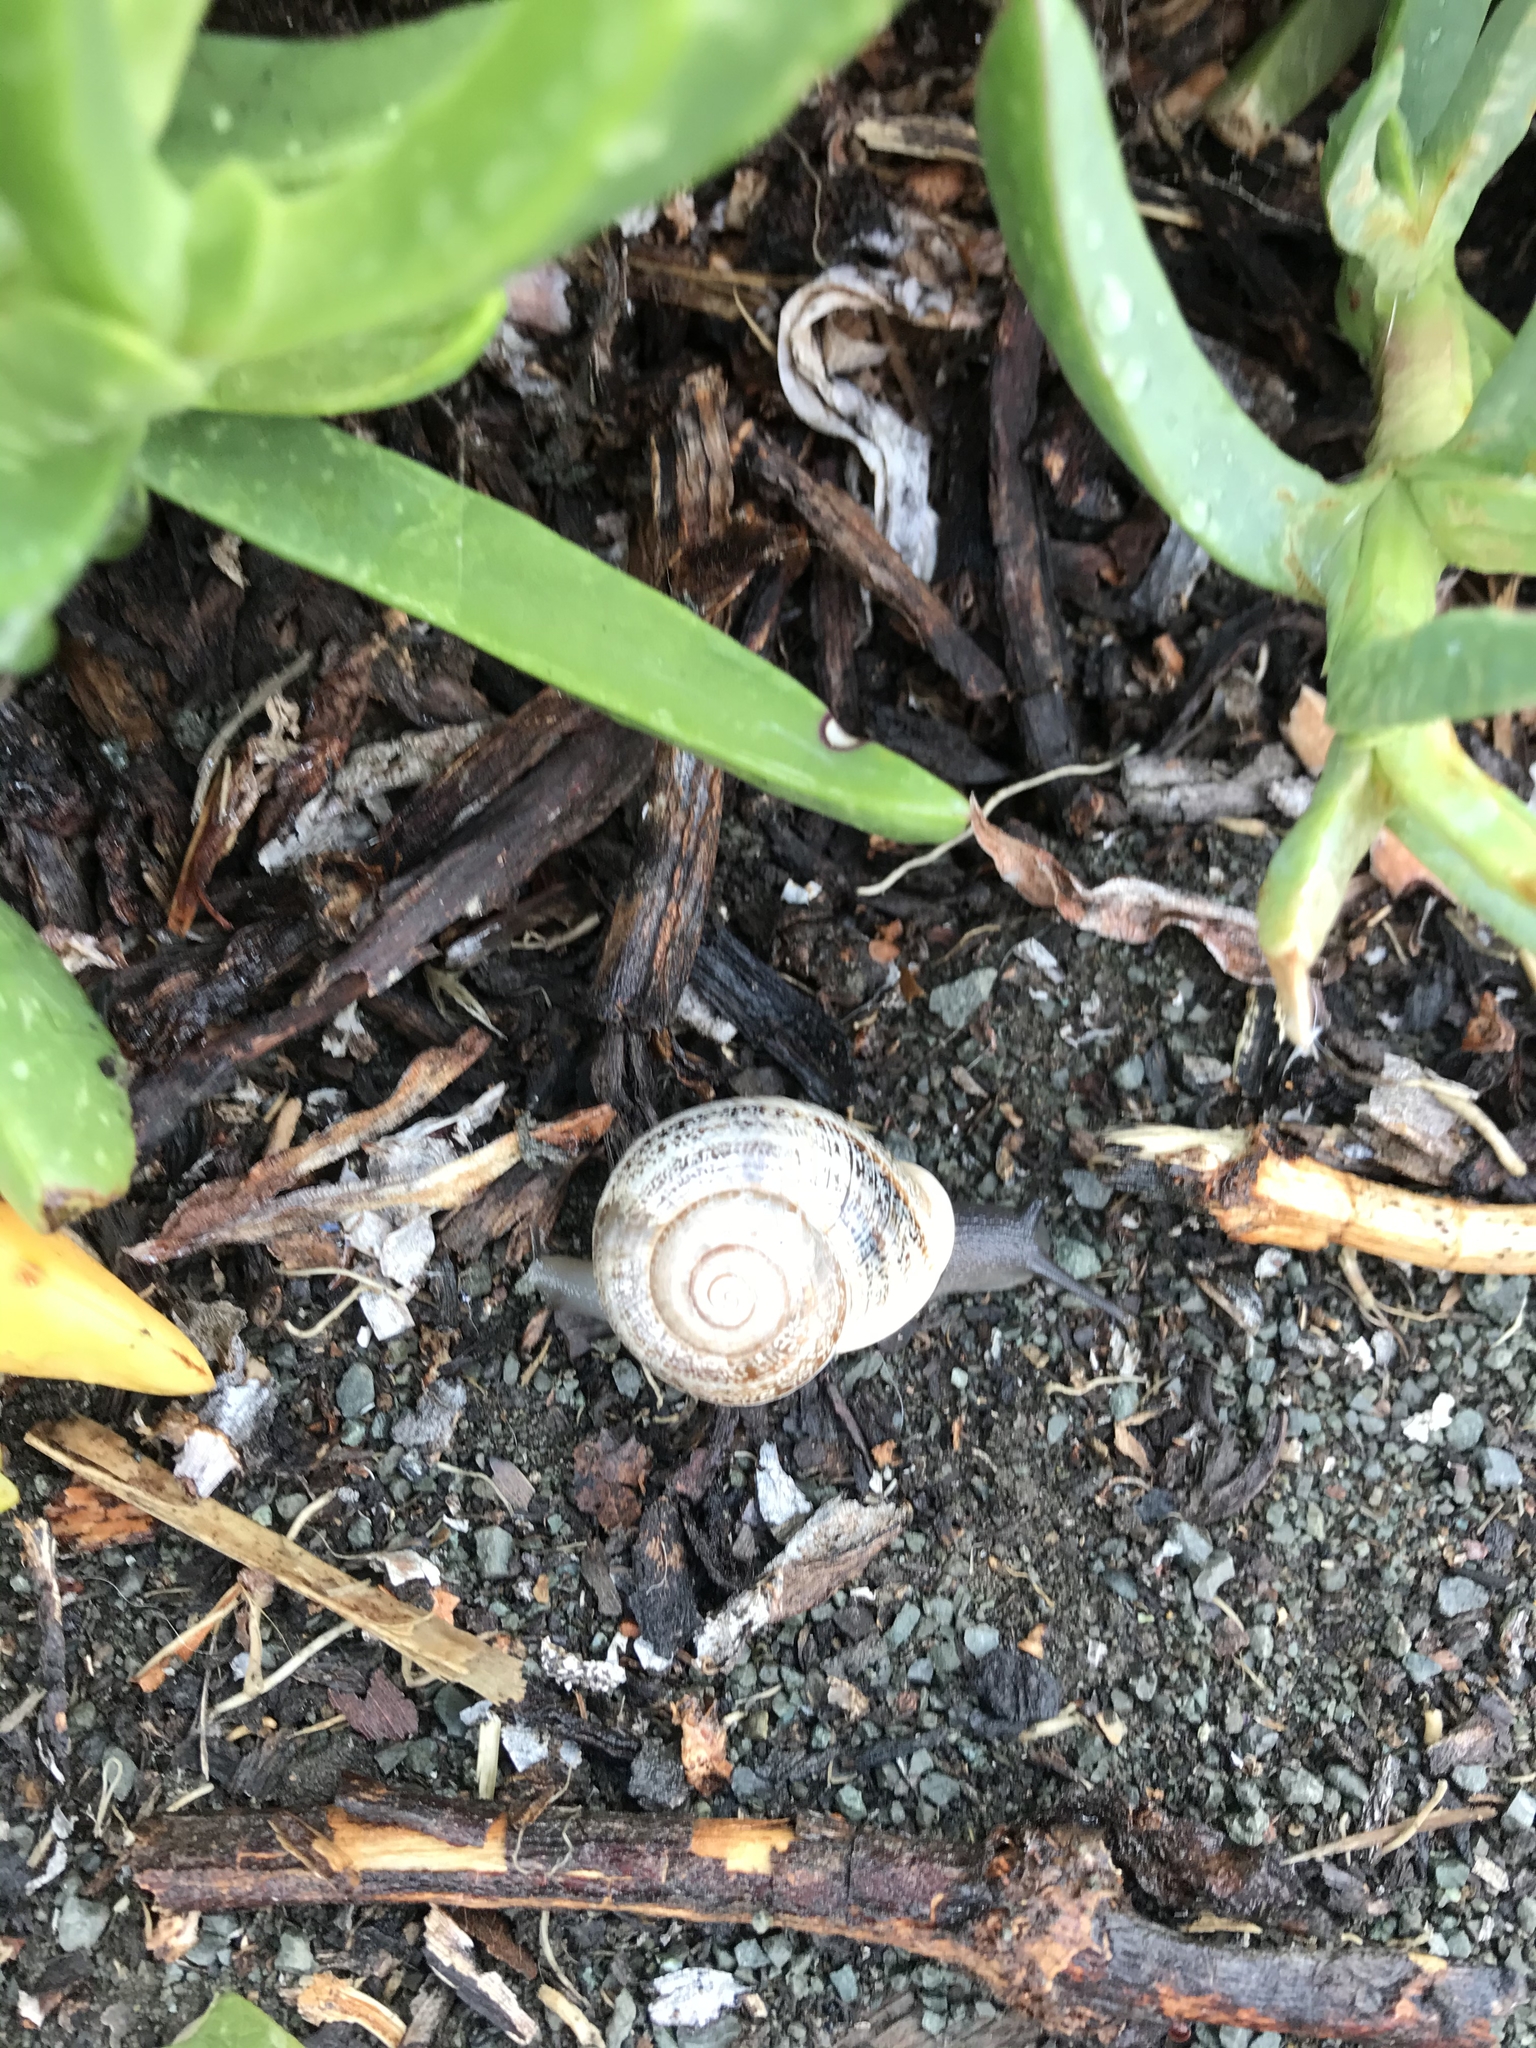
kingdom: Animalia
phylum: Mollusca
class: Gastropoda
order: Stylommatophora
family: Helicidae
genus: Otala
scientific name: Otala lactea
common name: Milk snail
